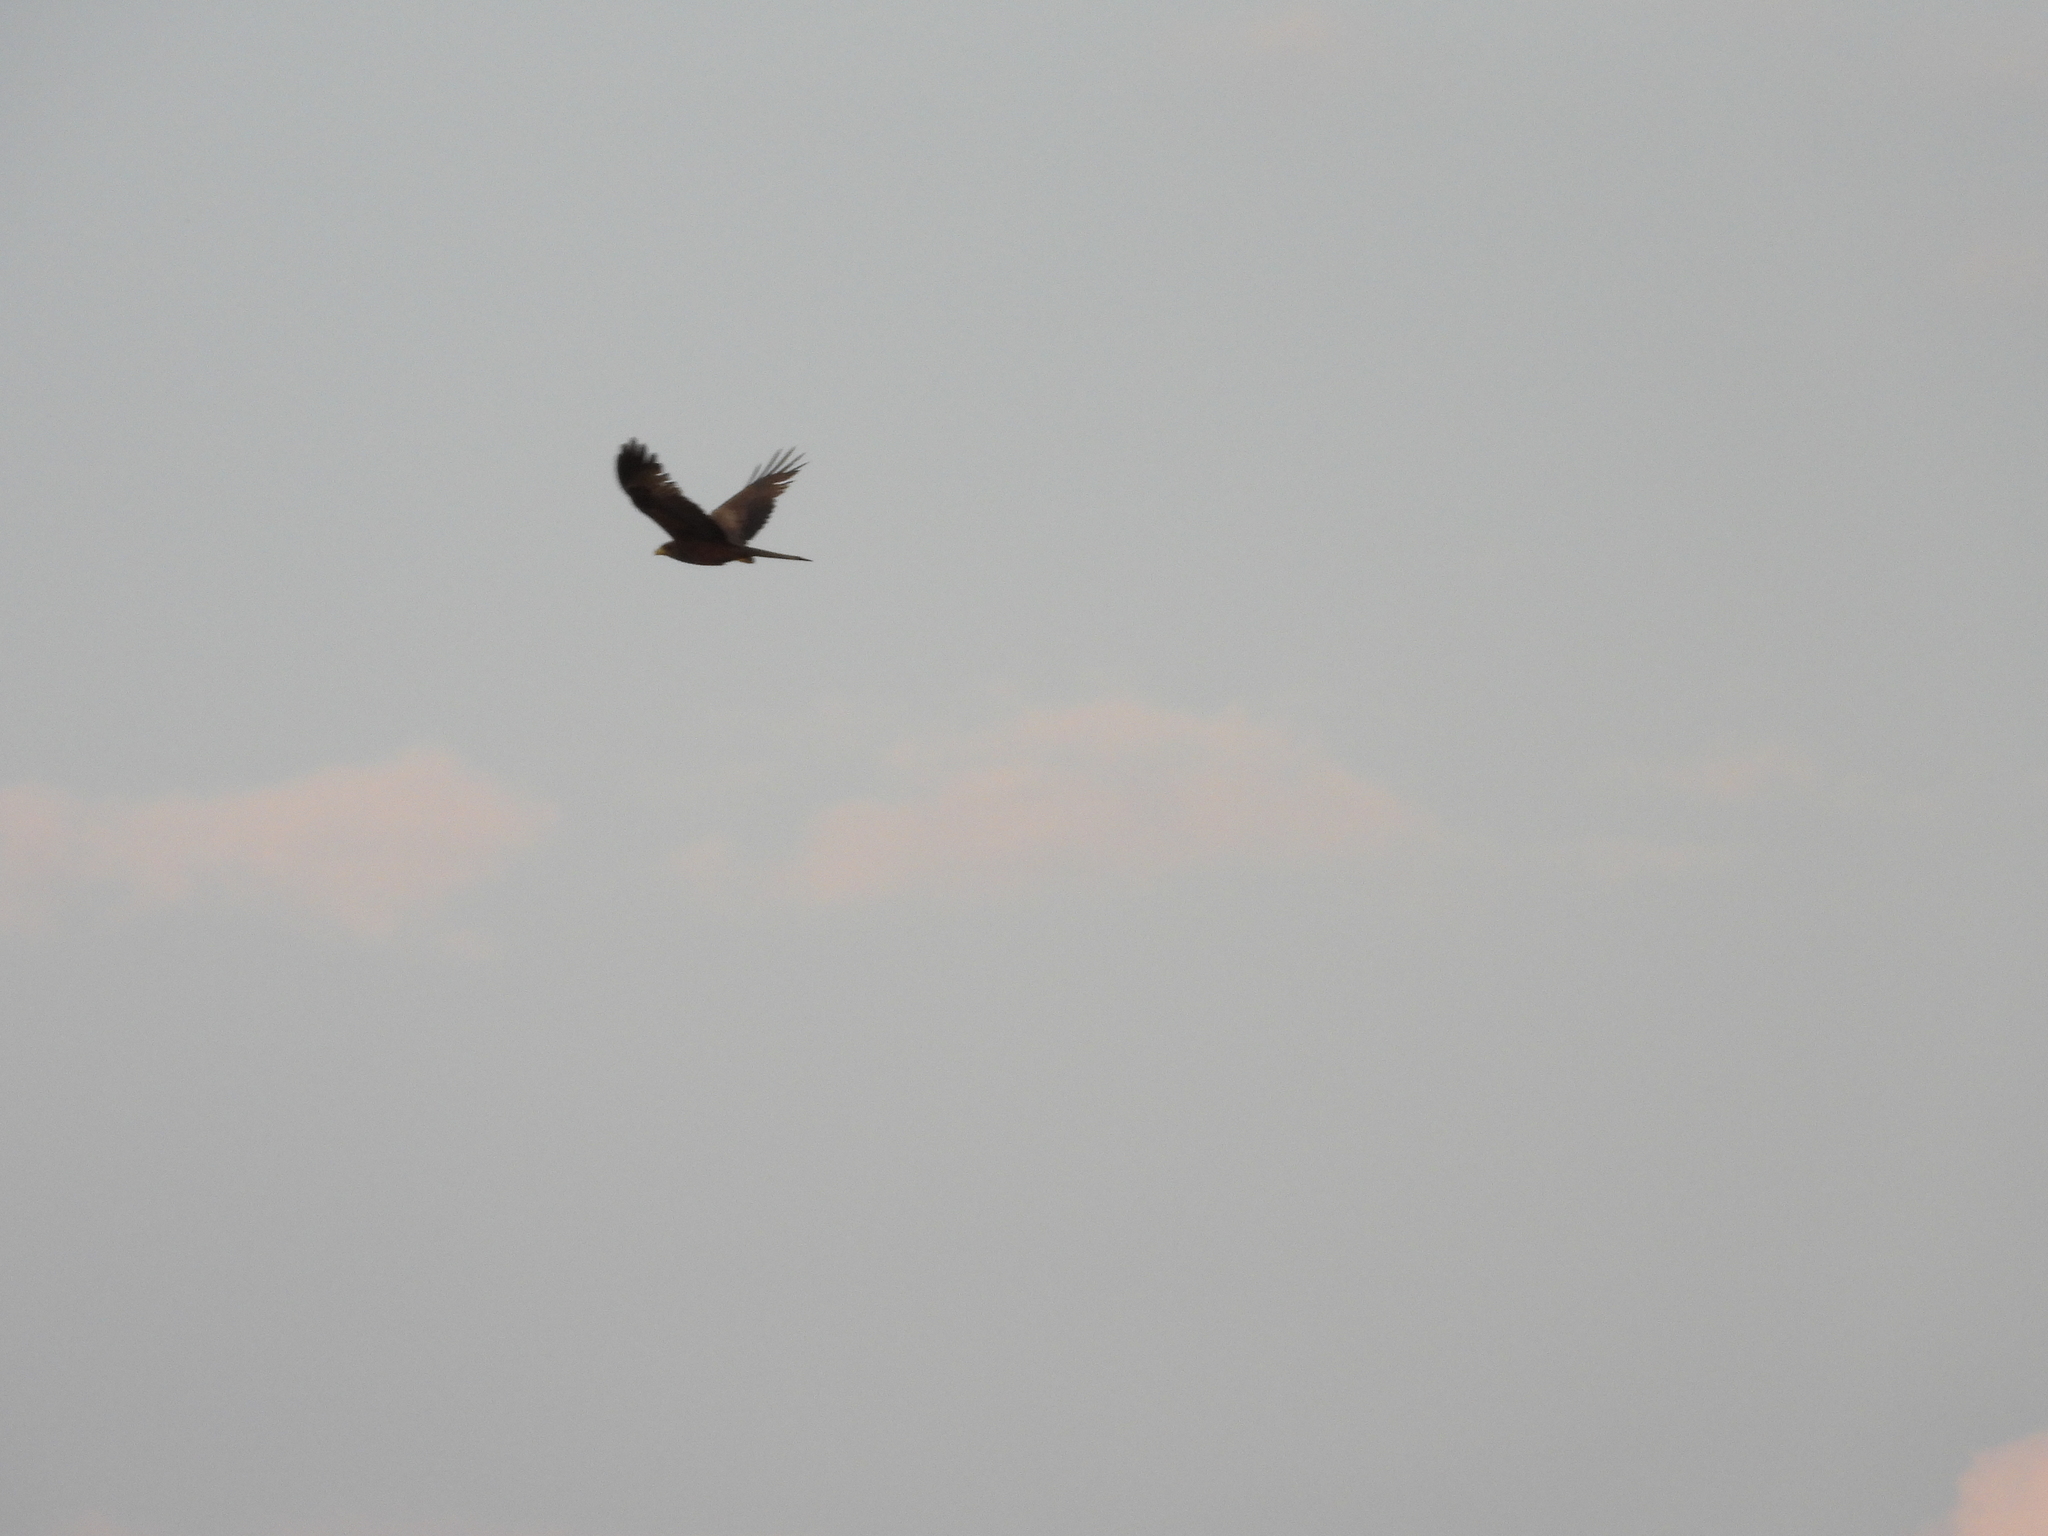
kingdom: Animalia
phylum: Chordata
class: Aves
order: Accipitriformes
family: Accipitridae
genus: Milvus
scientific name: Milvus migrans
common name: Black kite
